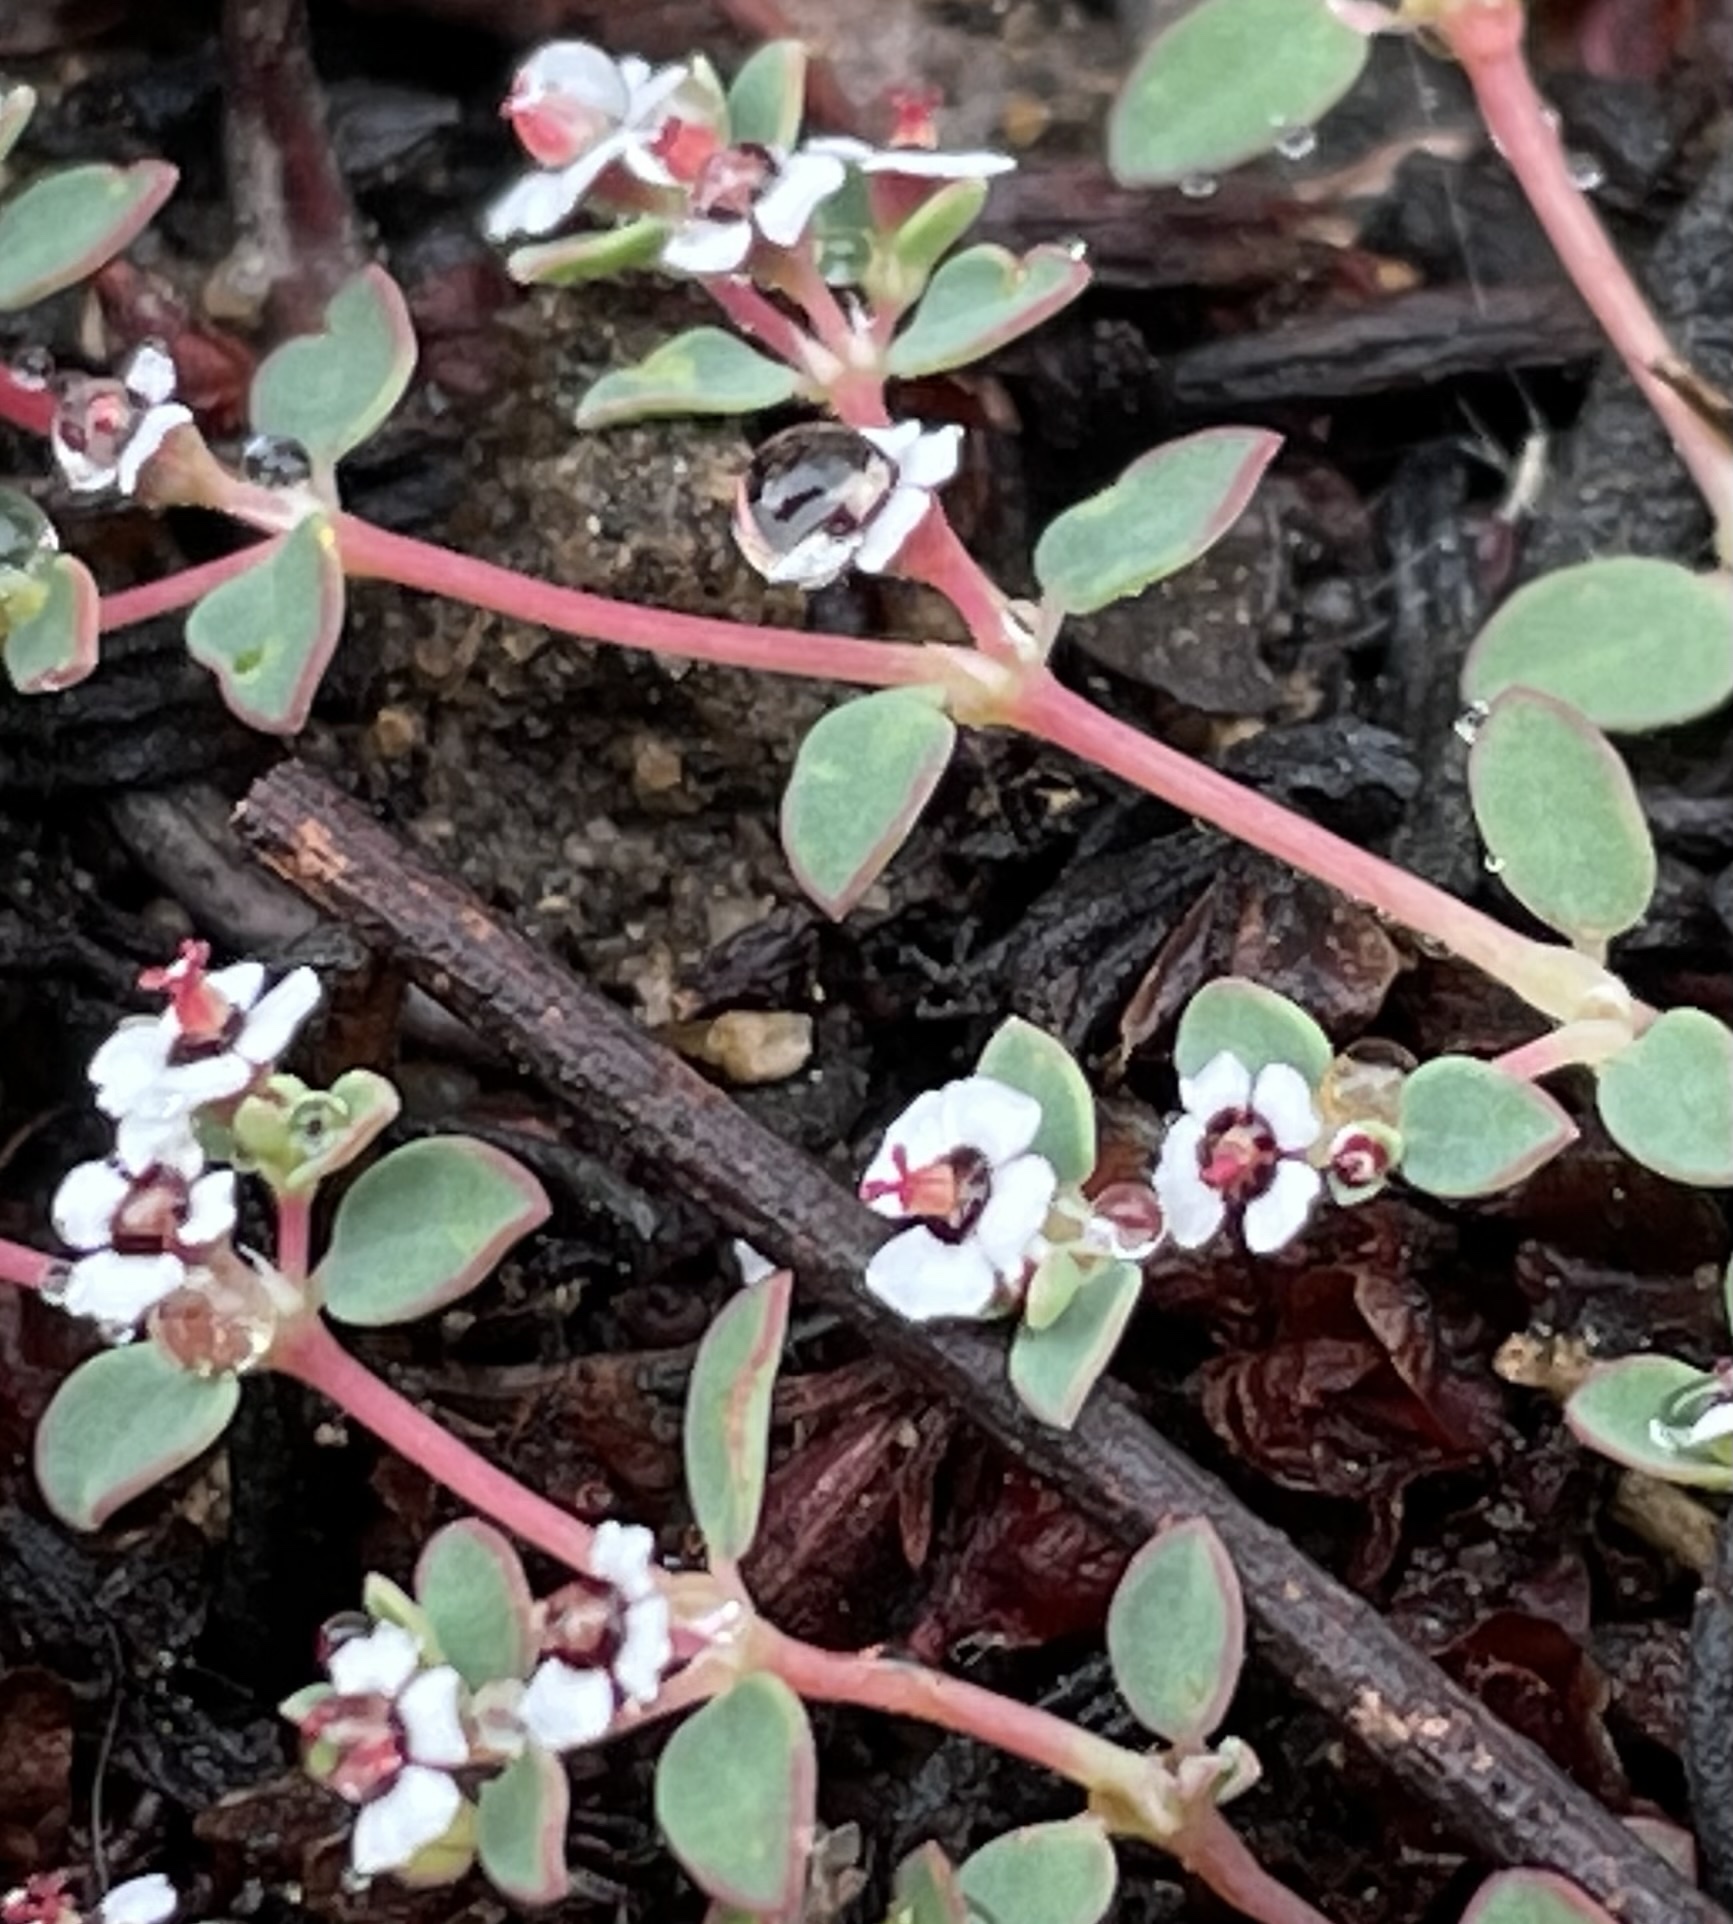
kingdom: Plantae
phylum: Tracheophyta
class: Magnoliopsida
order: Malpighiales
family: Euphorbiaceae
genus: Euphorbia
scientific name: Euphorbia polycarpa
